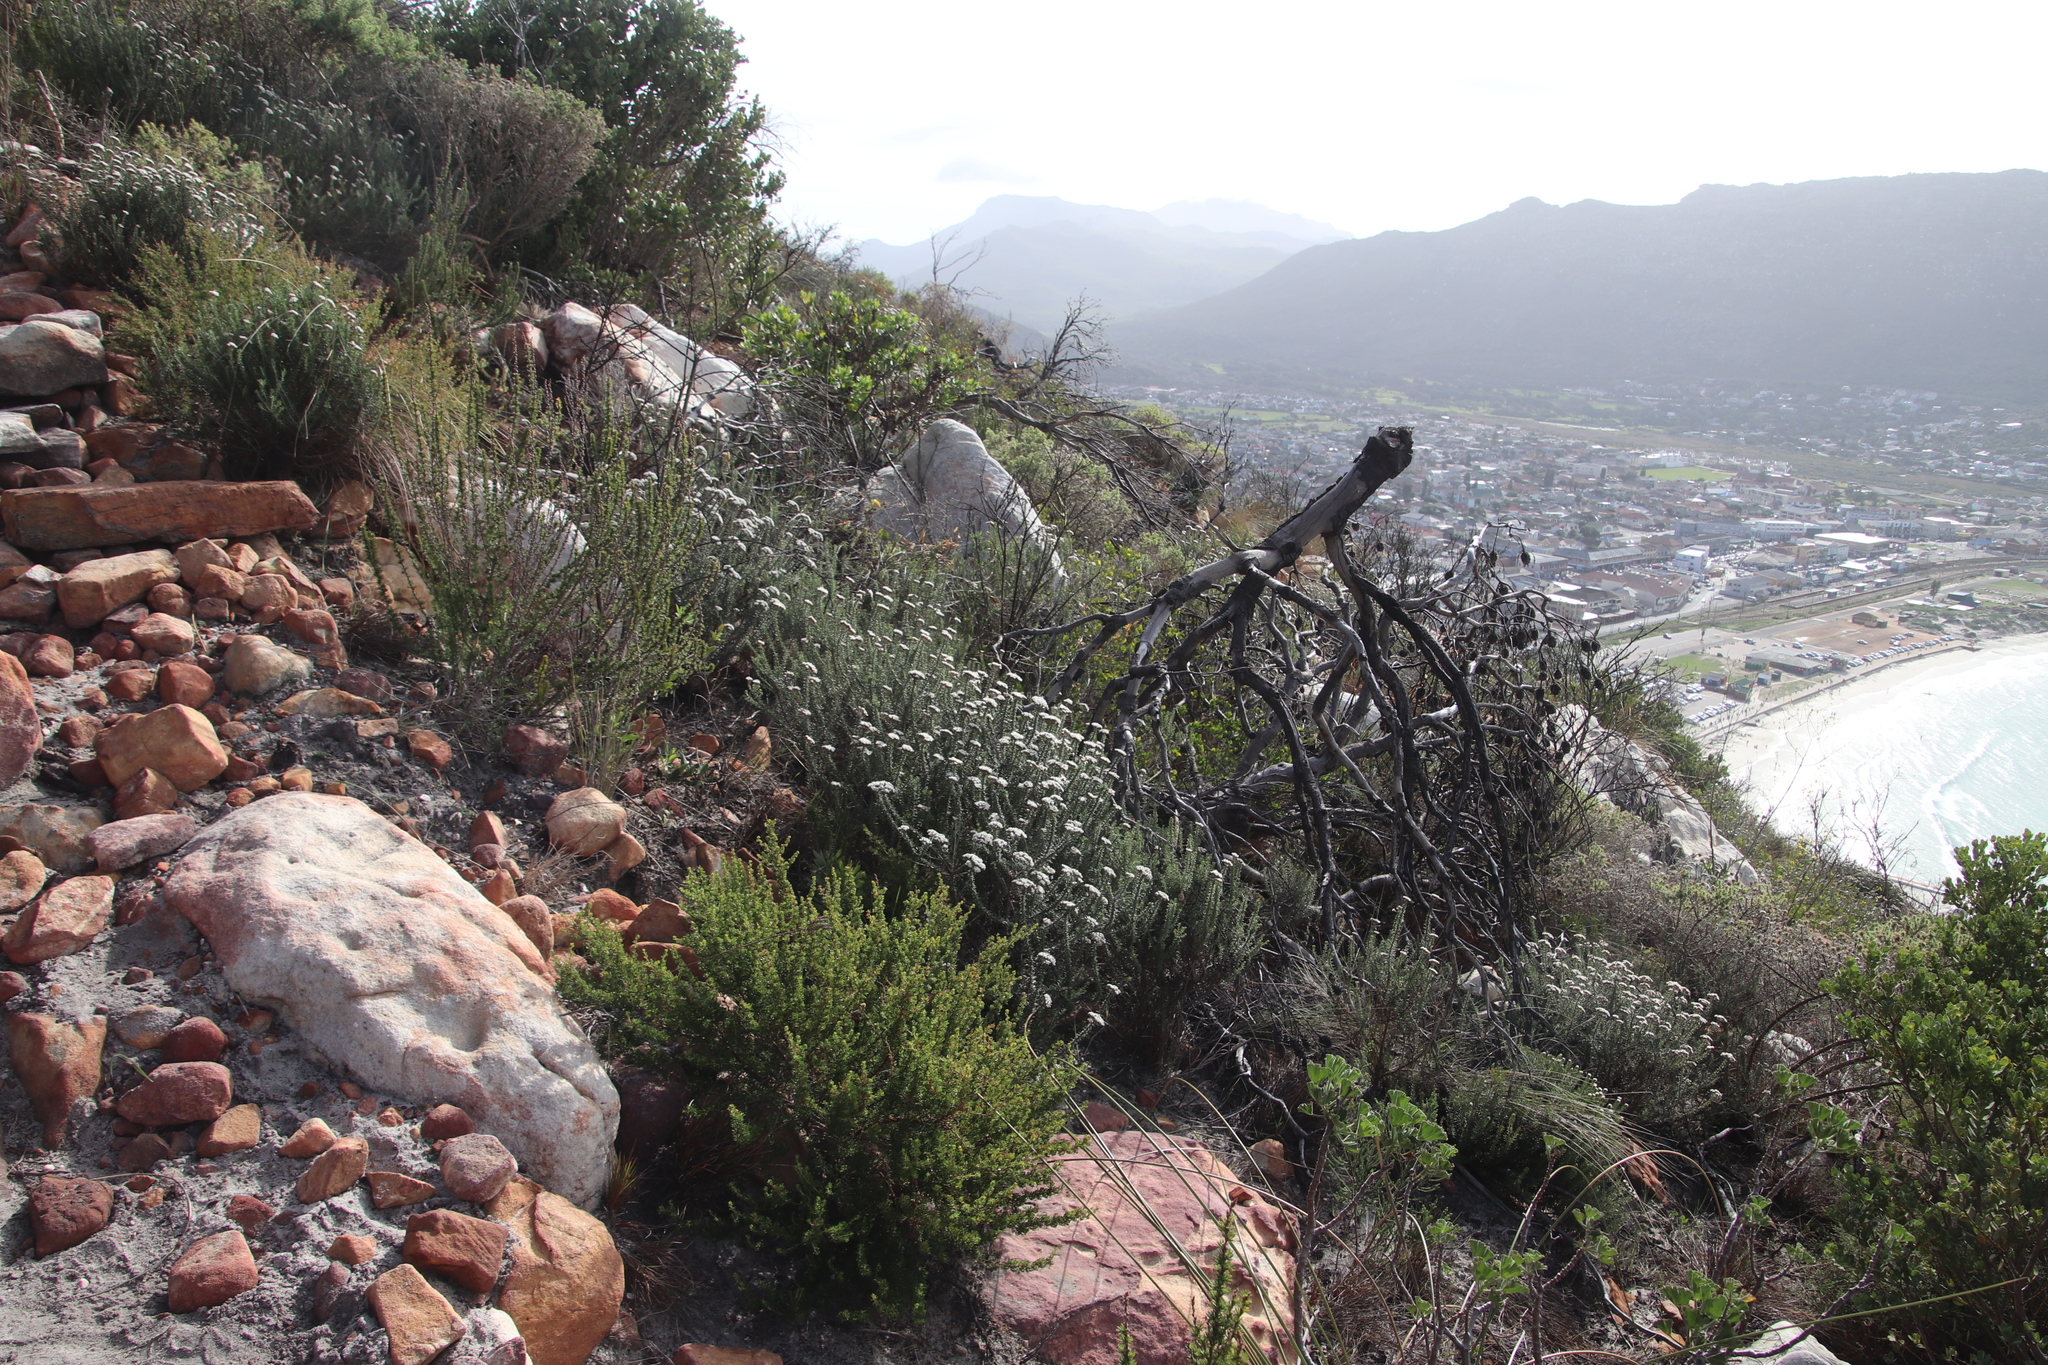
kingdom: Plantae
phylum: Tracheophyta
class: Magnoliopsida
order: Asterales
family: Asteraceae
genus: Metalasia
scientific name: Metalasia densa
